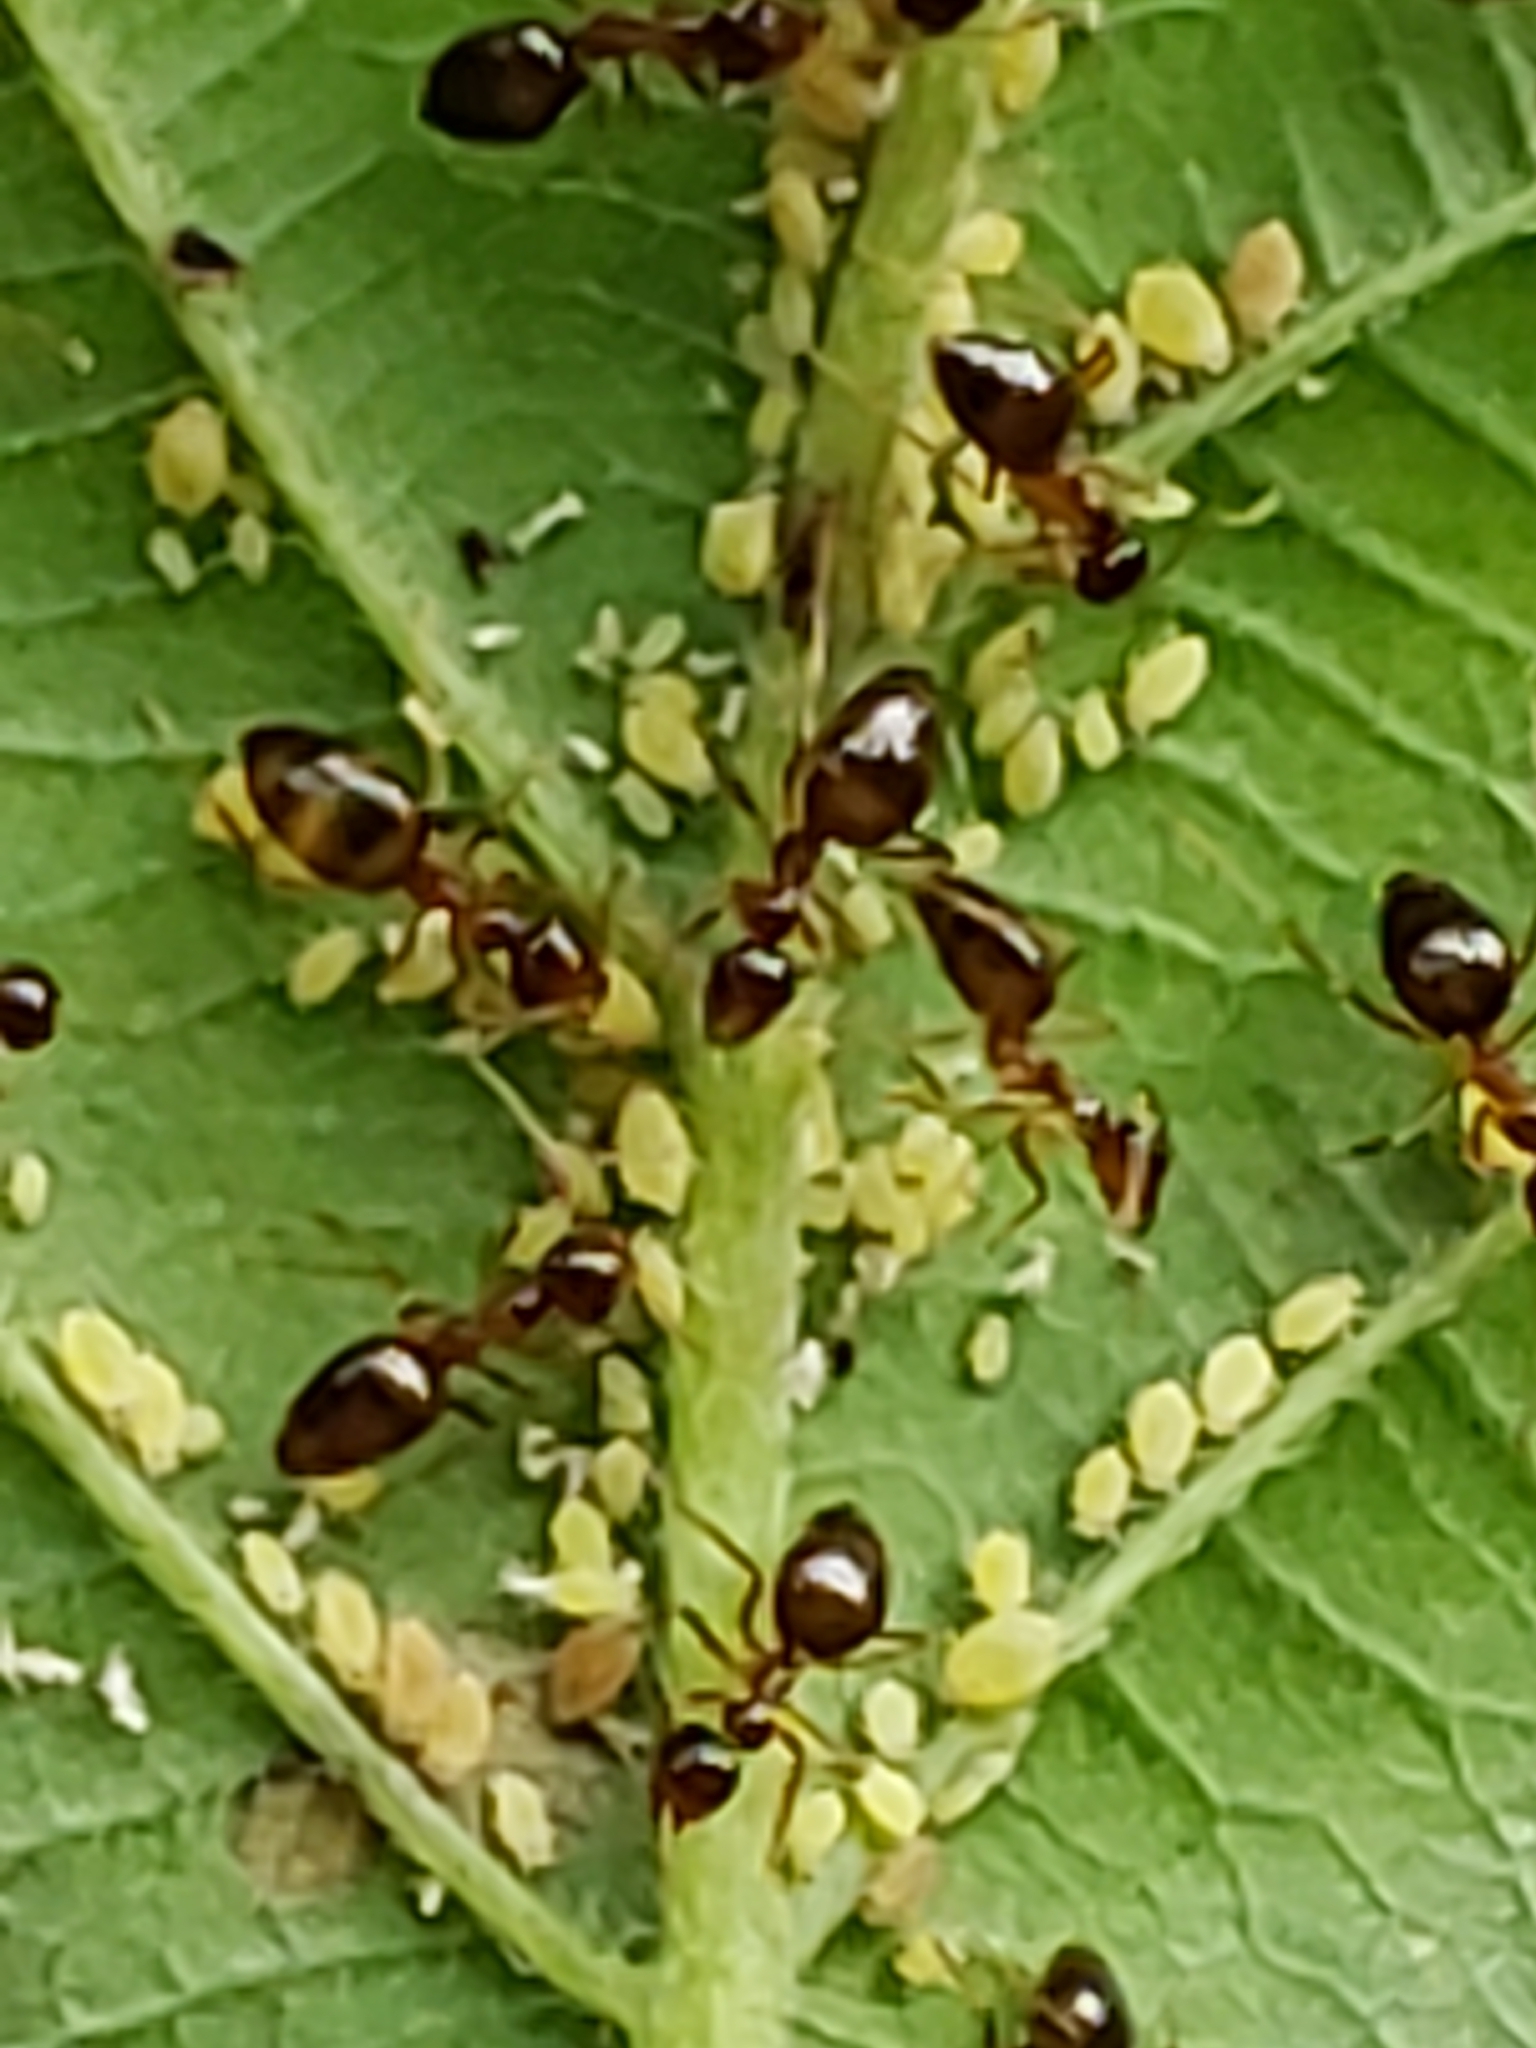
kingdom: Animalia
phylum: Arthropoda
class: Insecta
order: Hymenoptera
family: Formicidae
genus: Prenolepis
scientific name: Prenolepis imparis
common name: Small honey ant
